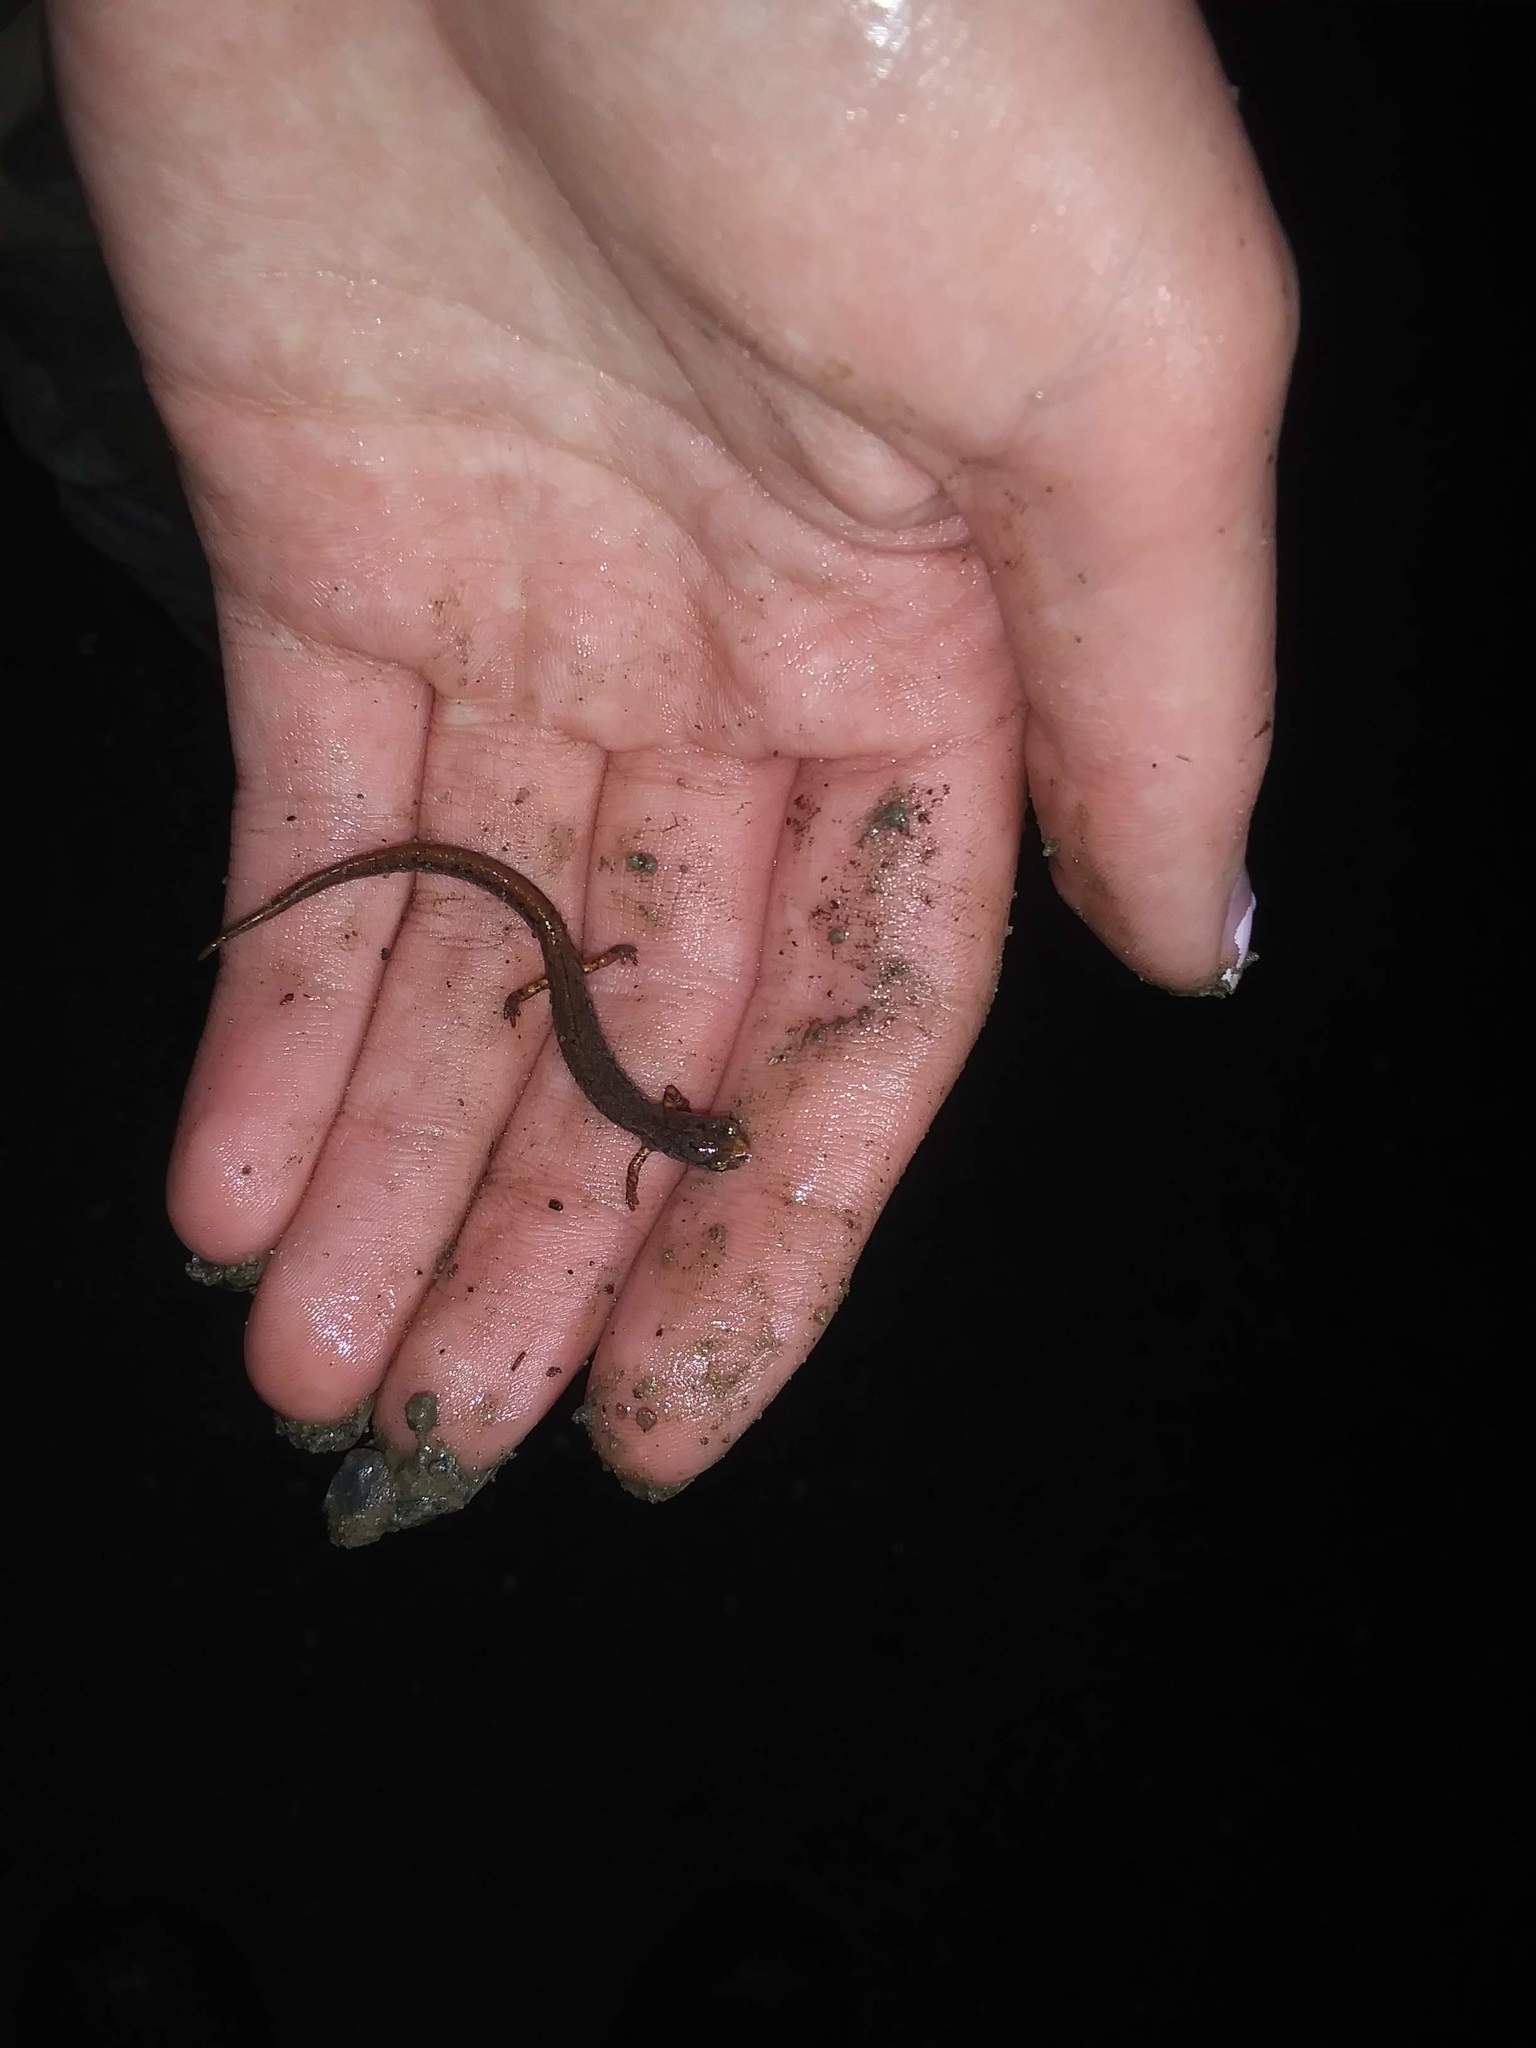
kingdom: Animalia
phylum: Chordata
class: Amphibia
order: Caudata
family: Plethodontidae
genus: Hemidactylium
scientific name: Hemidactylium scutatum
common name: Four-toed salamander
